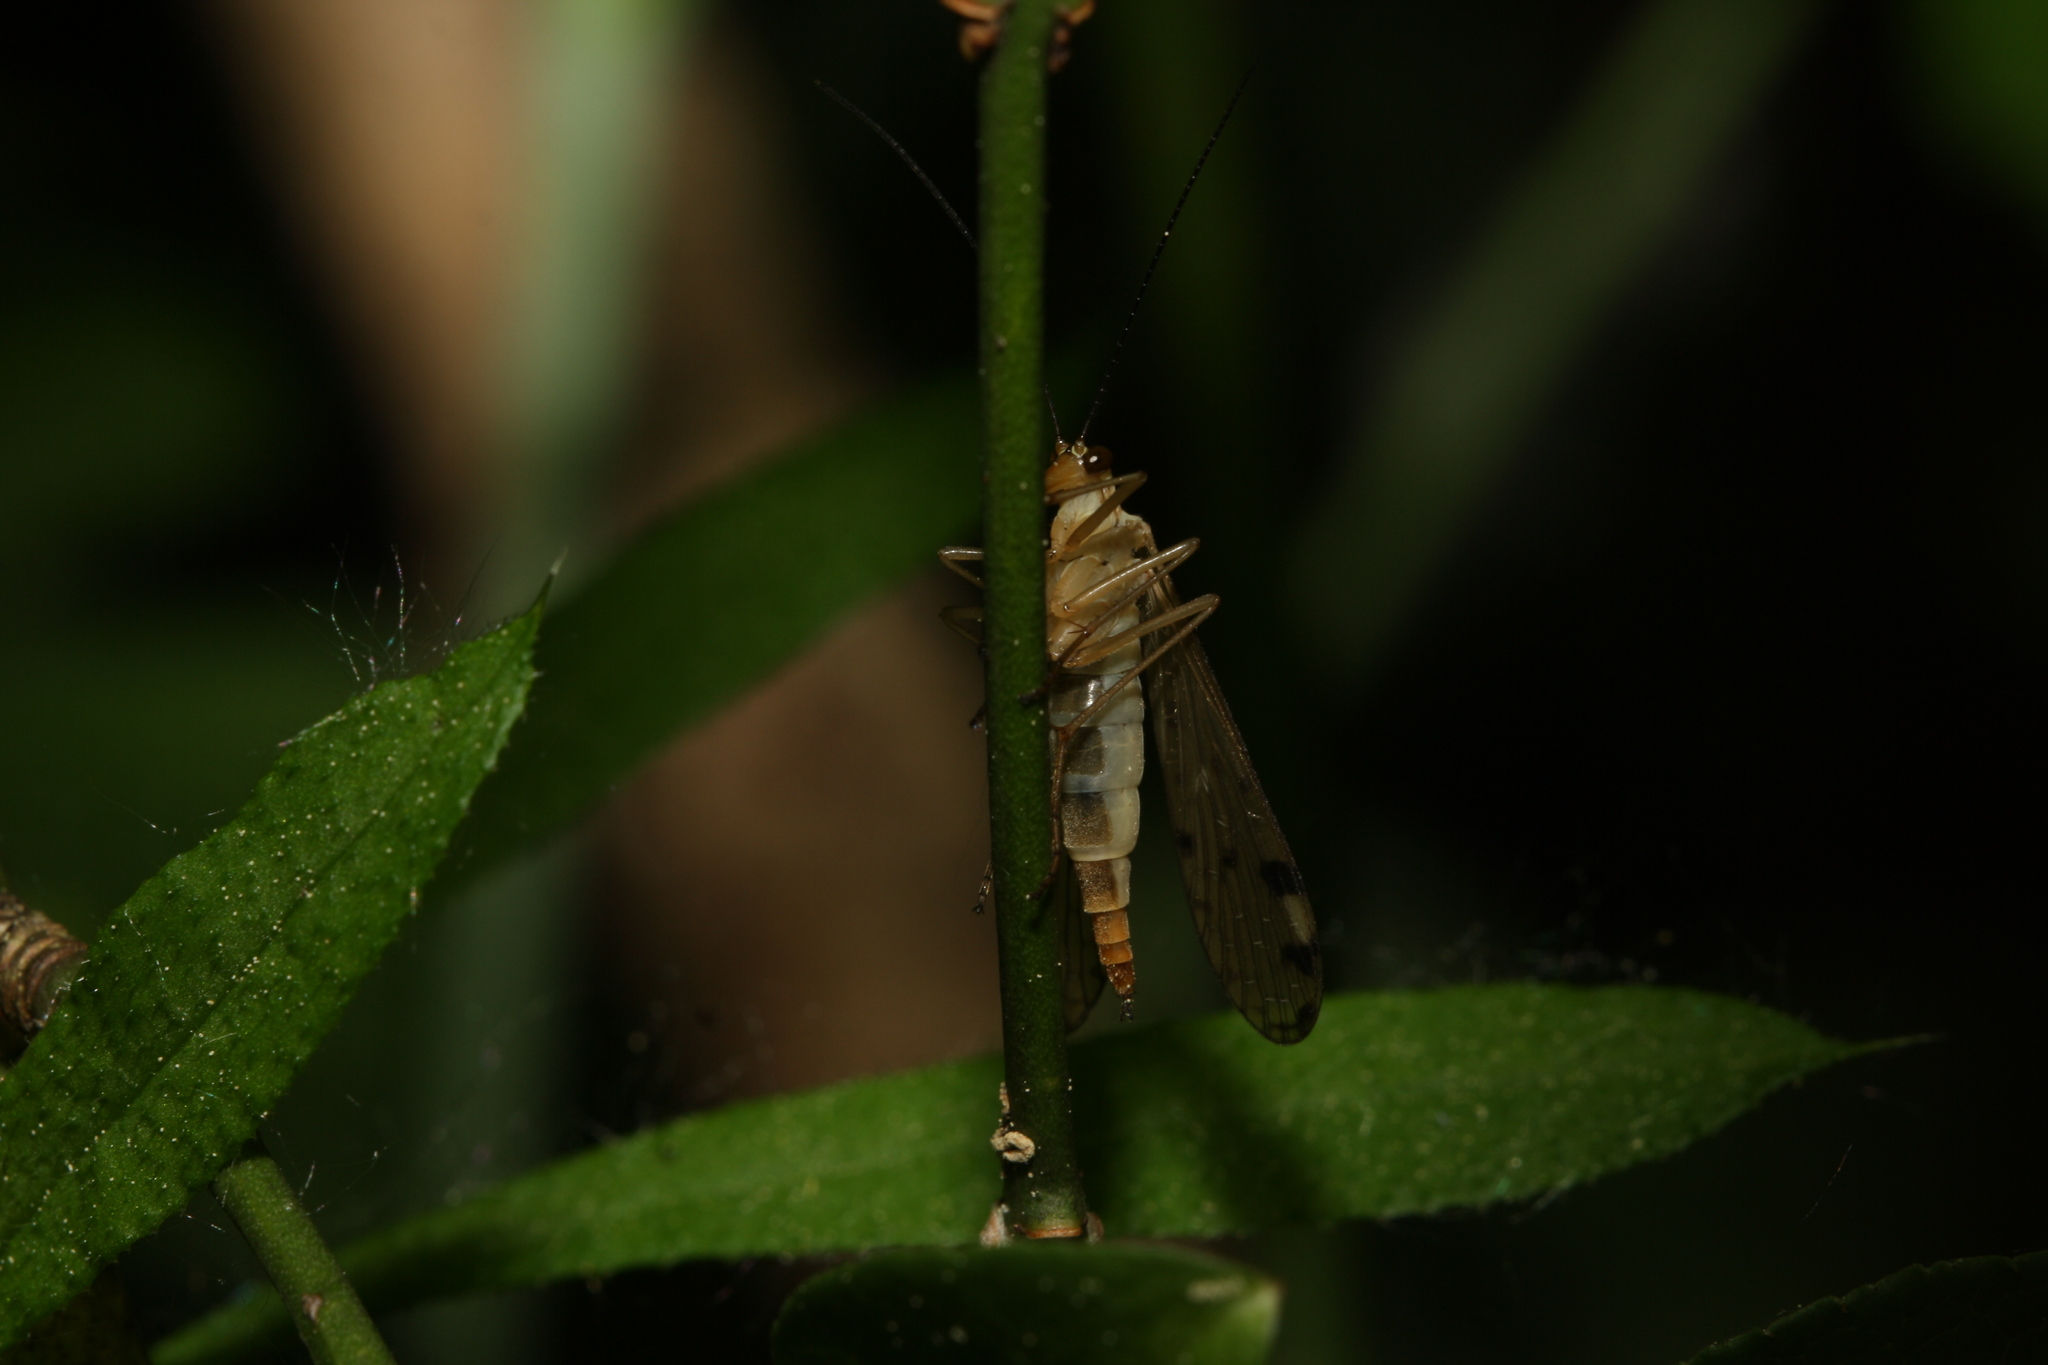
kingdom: Animalia
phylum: Arthropoda
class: Insecta
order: Mecoptera
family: Panorpidae
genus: Panorpa
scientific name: Panorpa alpina
